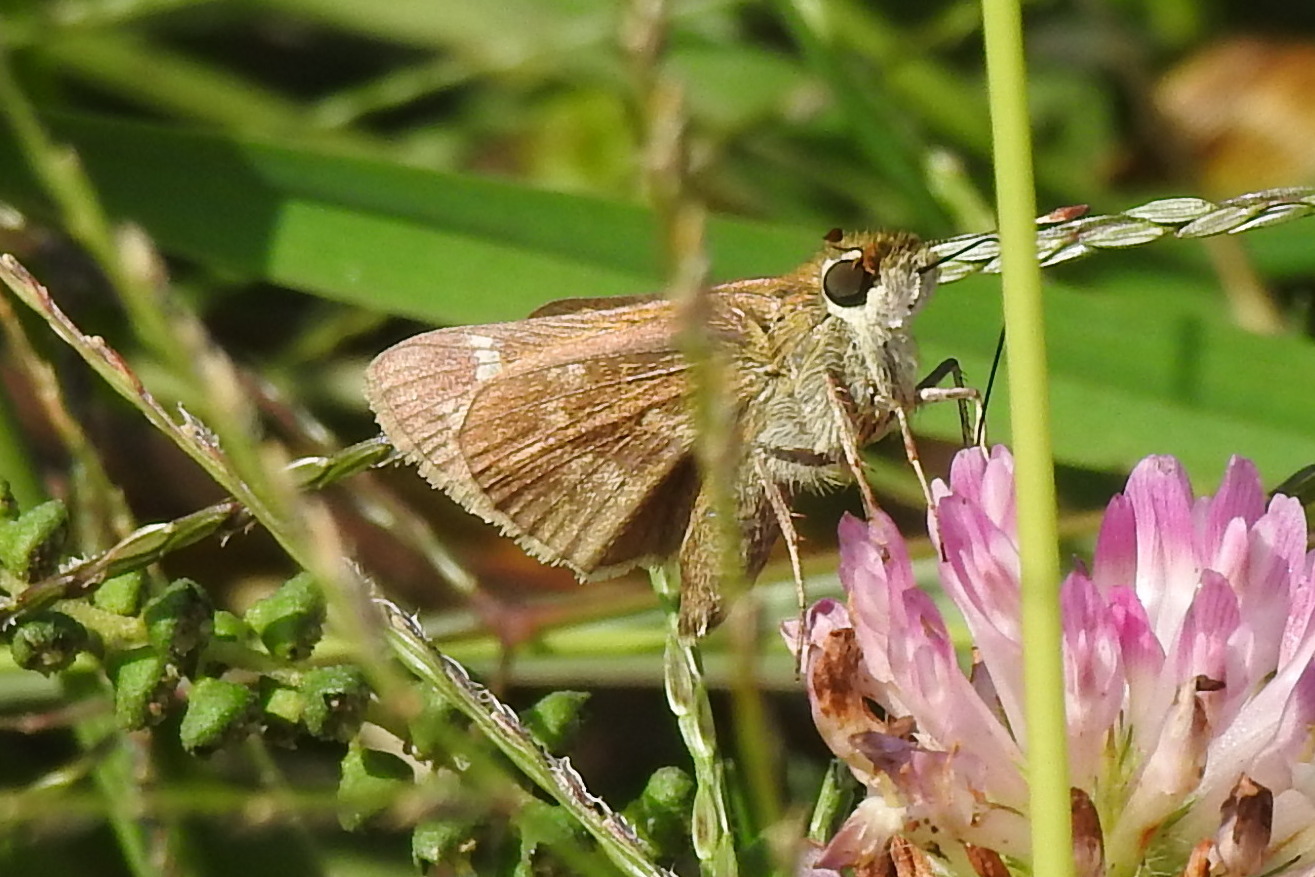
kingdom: Animalia
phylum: Arthropoda
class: Insecta
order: Lepidoptera
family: Hesperiidae
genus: Atalopedes
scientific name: Atalopedes
